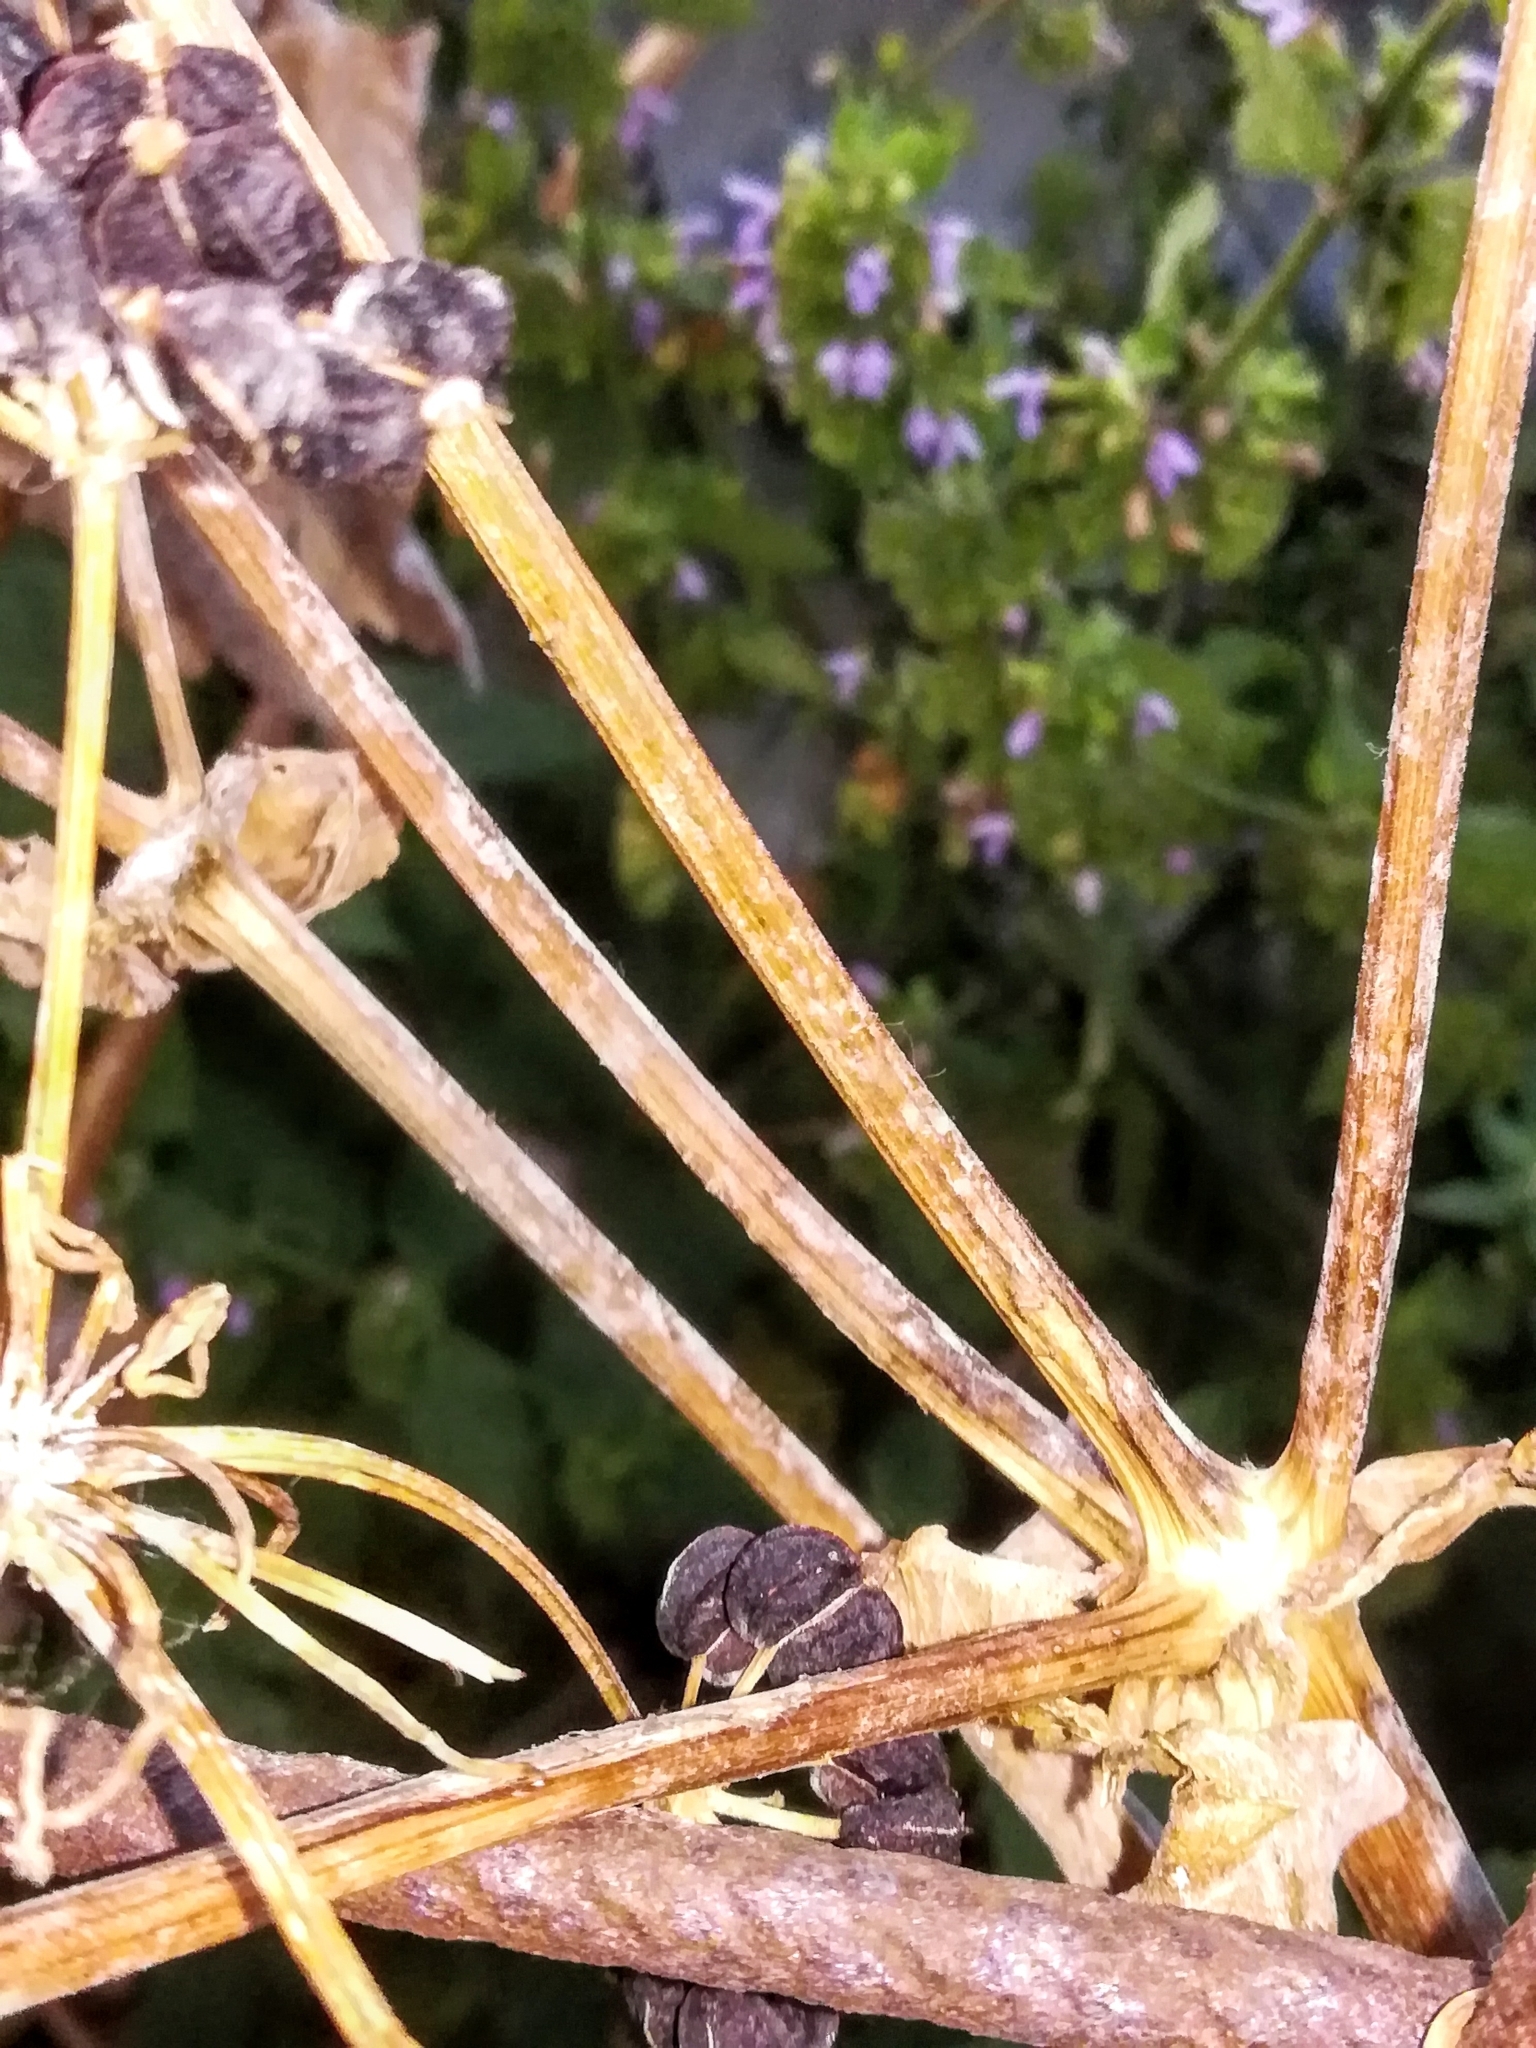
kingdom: Plantae
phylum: Tracheophyta
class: Magnoliopsida
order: Apiales
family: Apiaceae
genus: Smyrnium
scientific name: Smyrnium olusatrum
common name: Alexanders
